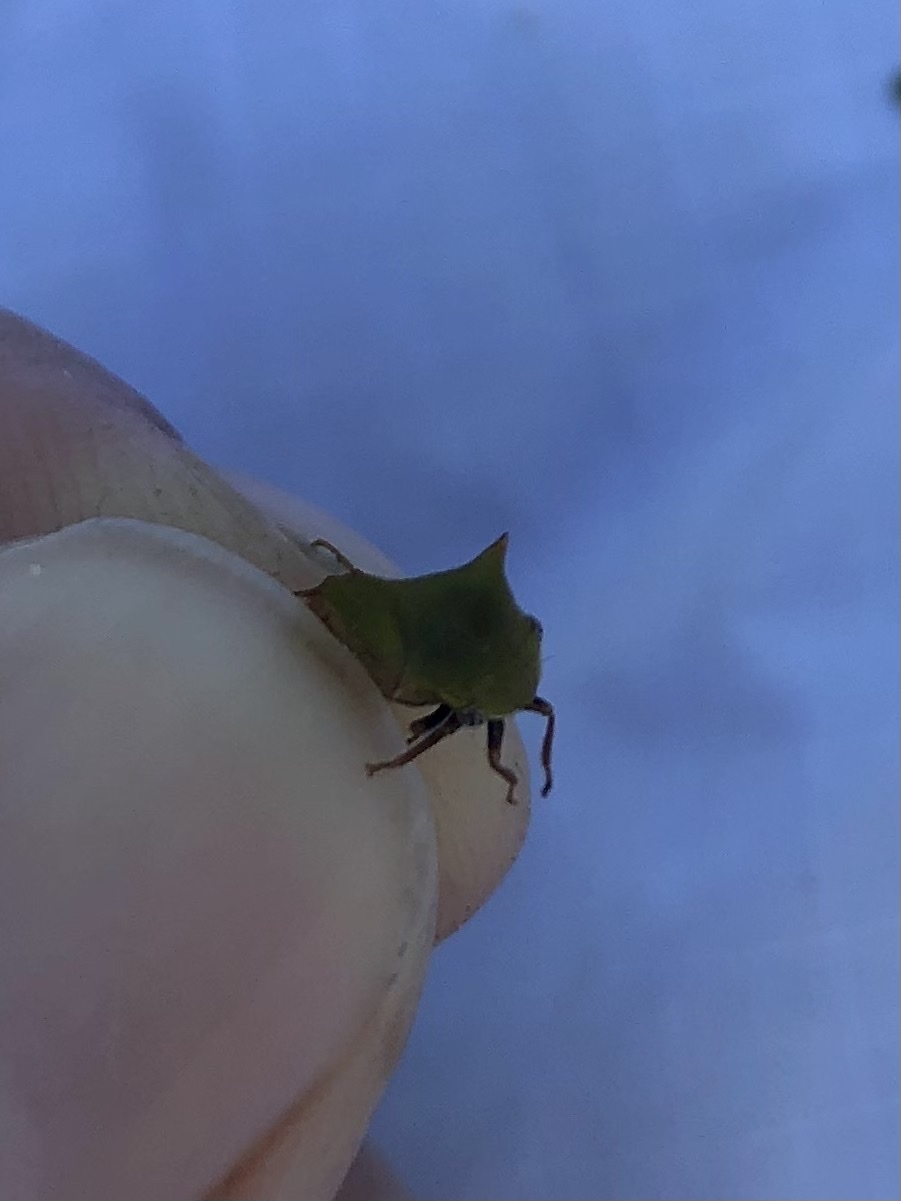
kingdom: Animalia
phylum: Arthropoda
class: Insecta
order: Hemiptera
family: Membracidae
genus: Stictocephala
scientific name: Stictocephala brevitylus
